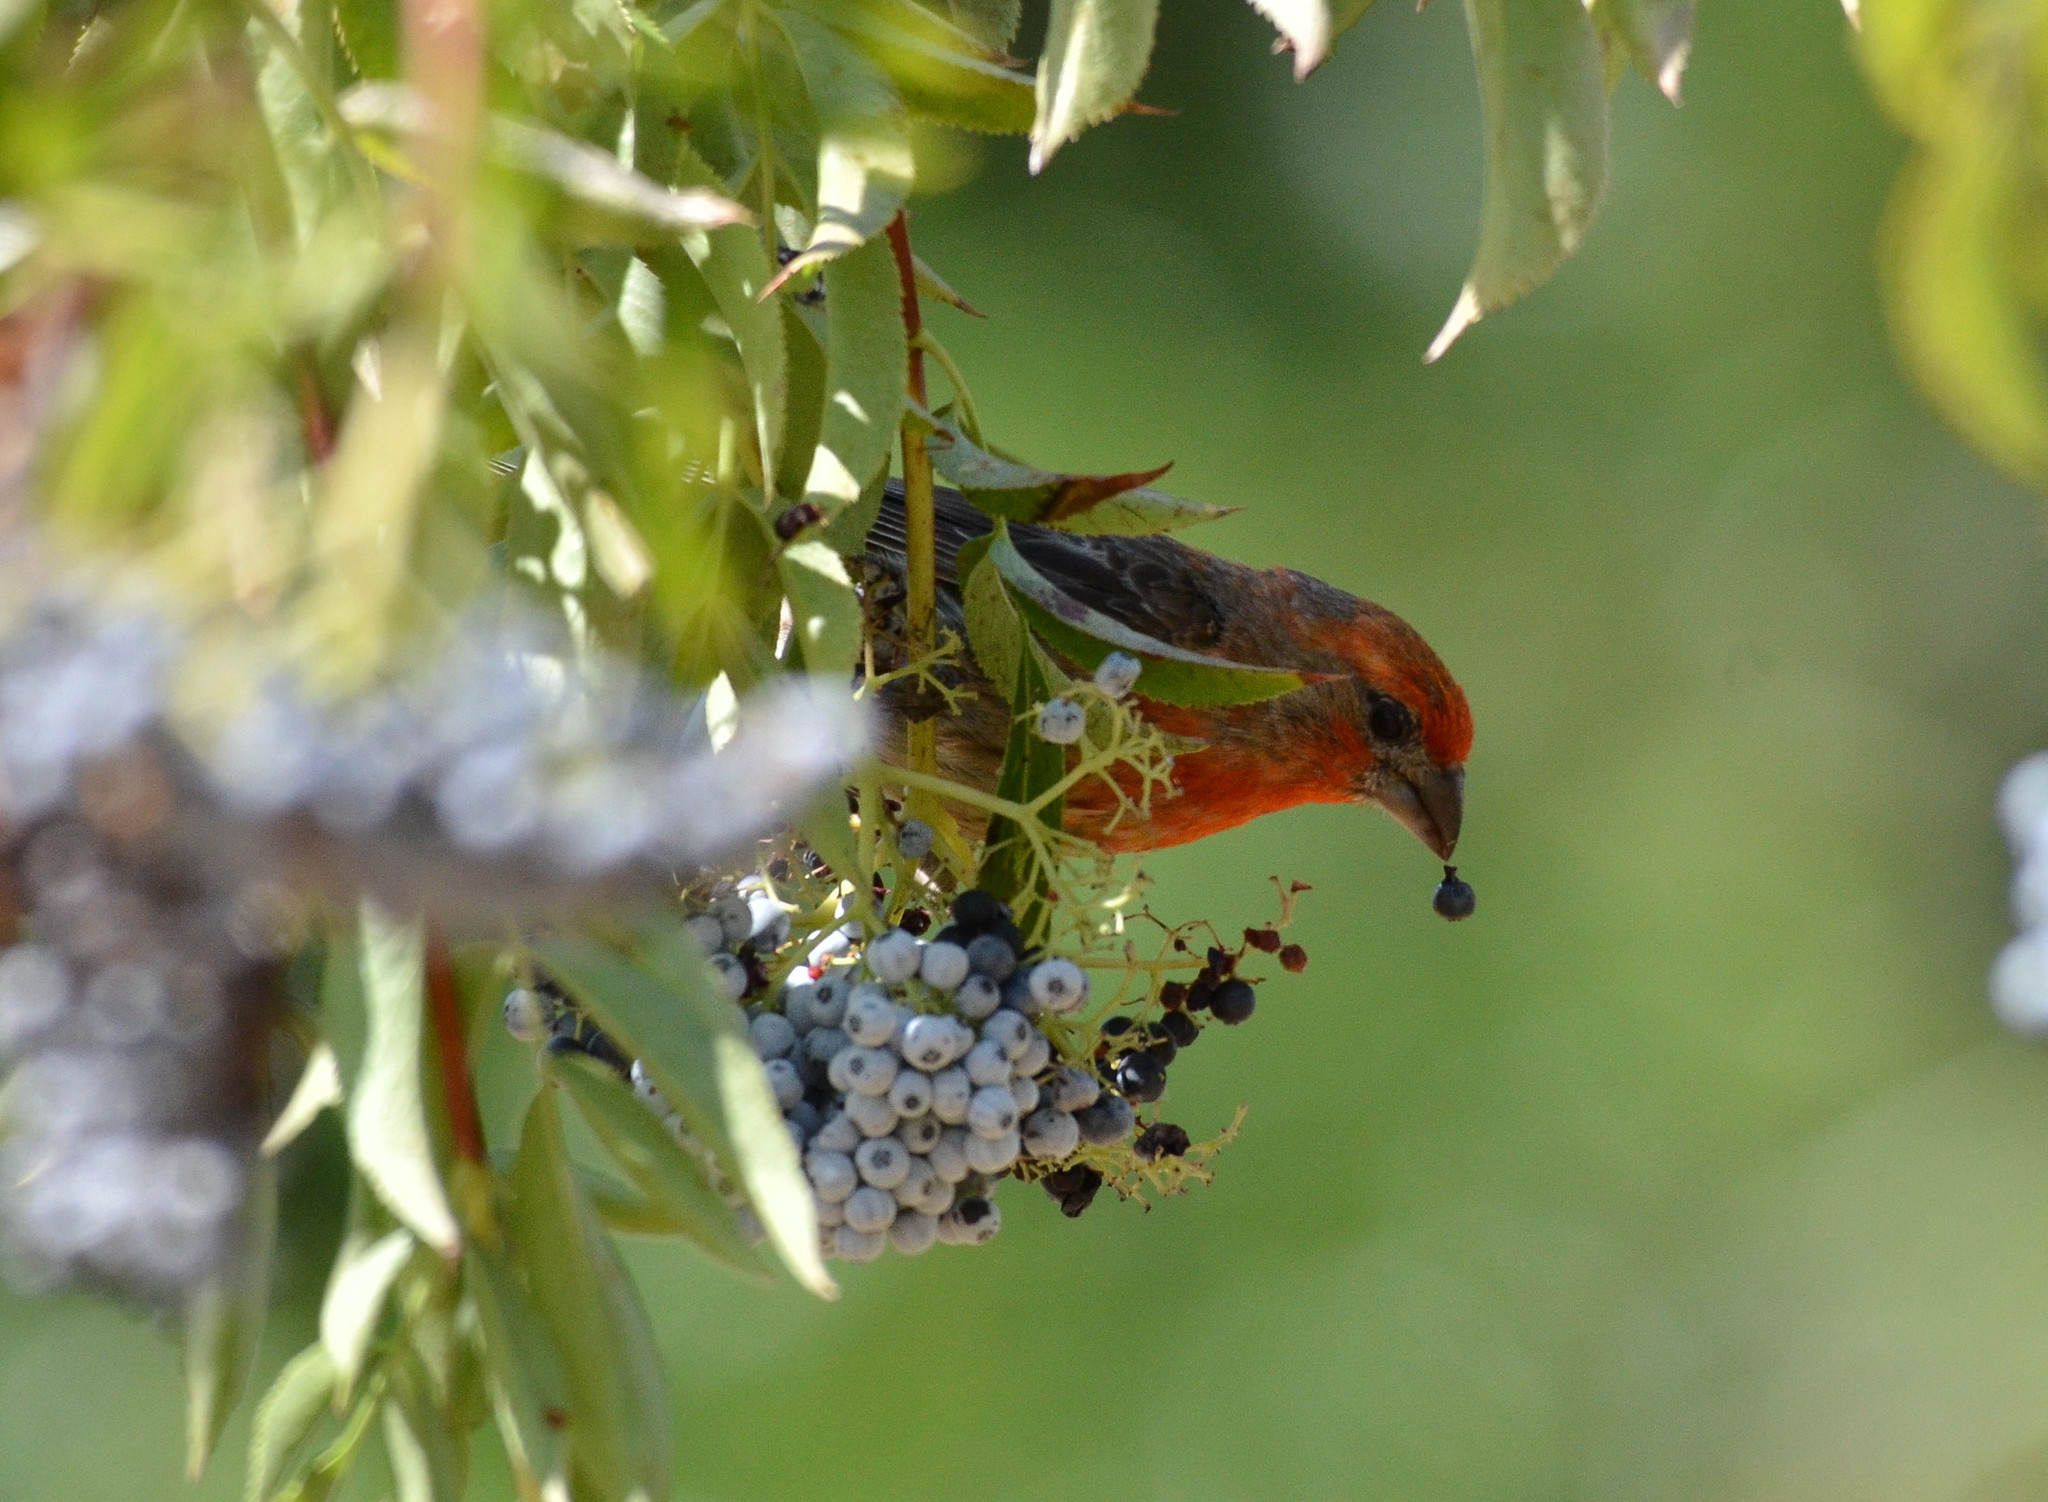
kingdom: Animalia
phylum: Chordata
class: Aves
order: Passeriformes
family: Fringillidae
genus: Haemorhous
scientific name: Haemorhous mexicanus
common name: House finch
